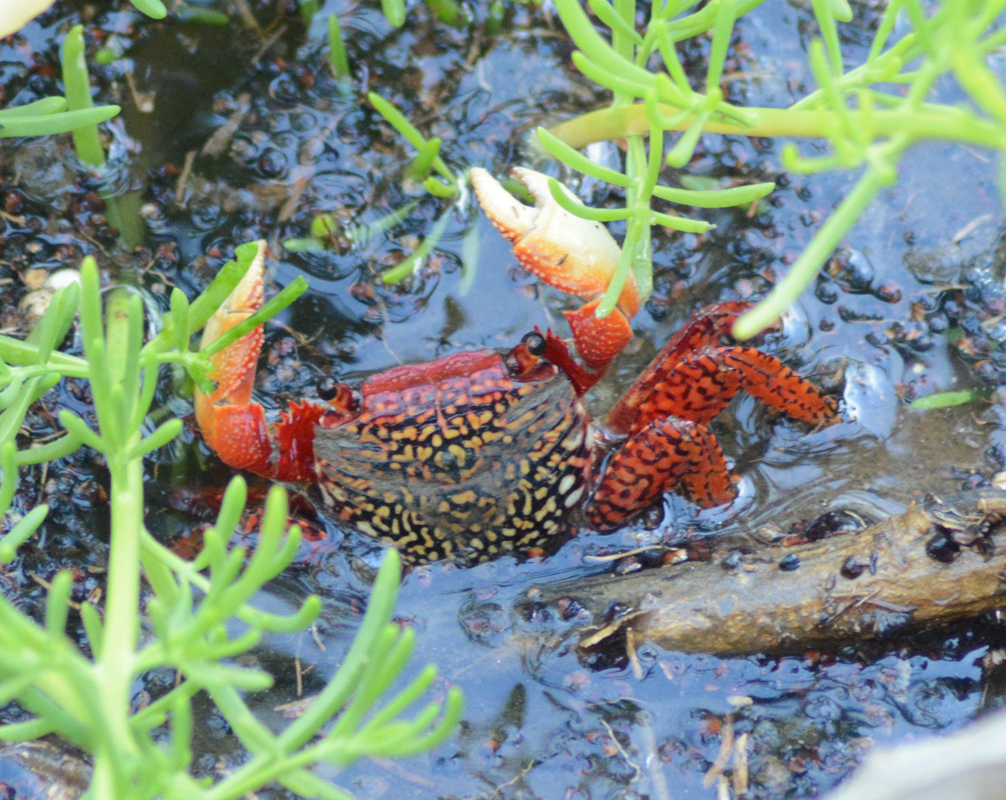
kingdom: Animalia
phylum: Arthropoda
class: Malacostraca
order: Decapoda
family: Grapsidae
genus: Goniopsis
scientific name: Goniopsis pulchra
